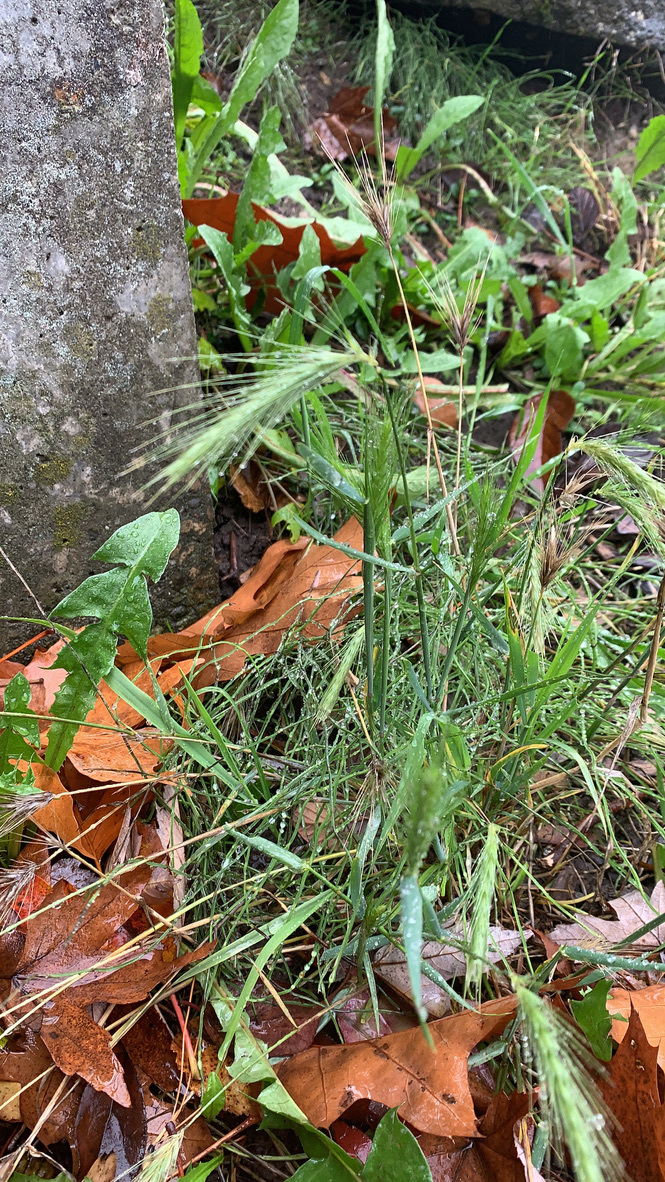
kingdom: Plantae
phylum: Tracheophyta
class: Liliopsida
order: Poales
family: Poaceae
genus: Hordeum
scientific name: Hordeum murinum
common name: Wall barley
